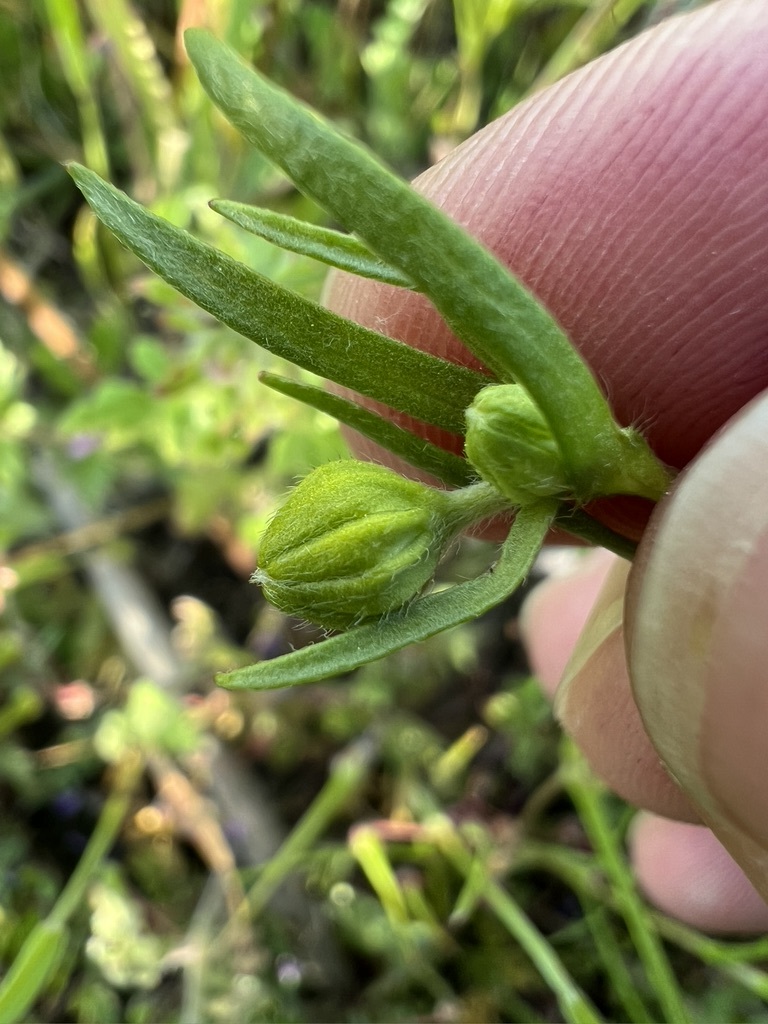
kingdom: Plantae
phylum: Tracheophyta
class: Magnoliopsida
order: Asterales
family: Asteraceae
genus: Lasthenia
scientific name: Lasthenia gracilis
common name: Common goldfields
